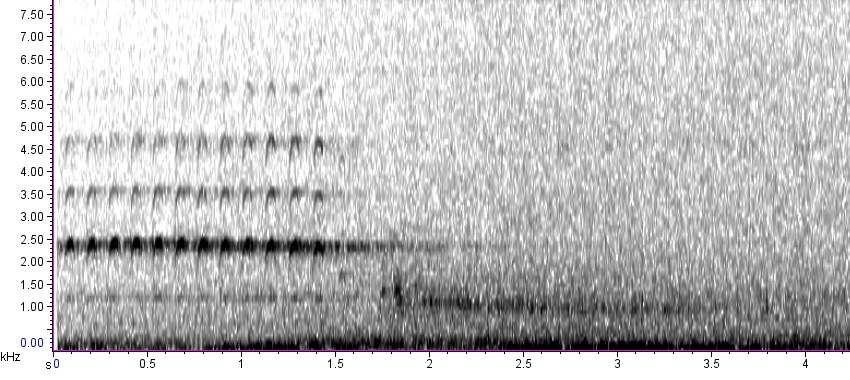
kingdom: Animalia
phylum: Chordata
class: Aves
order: Galliformes
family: Phasianidae
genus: Meleagris
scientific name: Meleagris gallopavo
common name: Wild turkey
